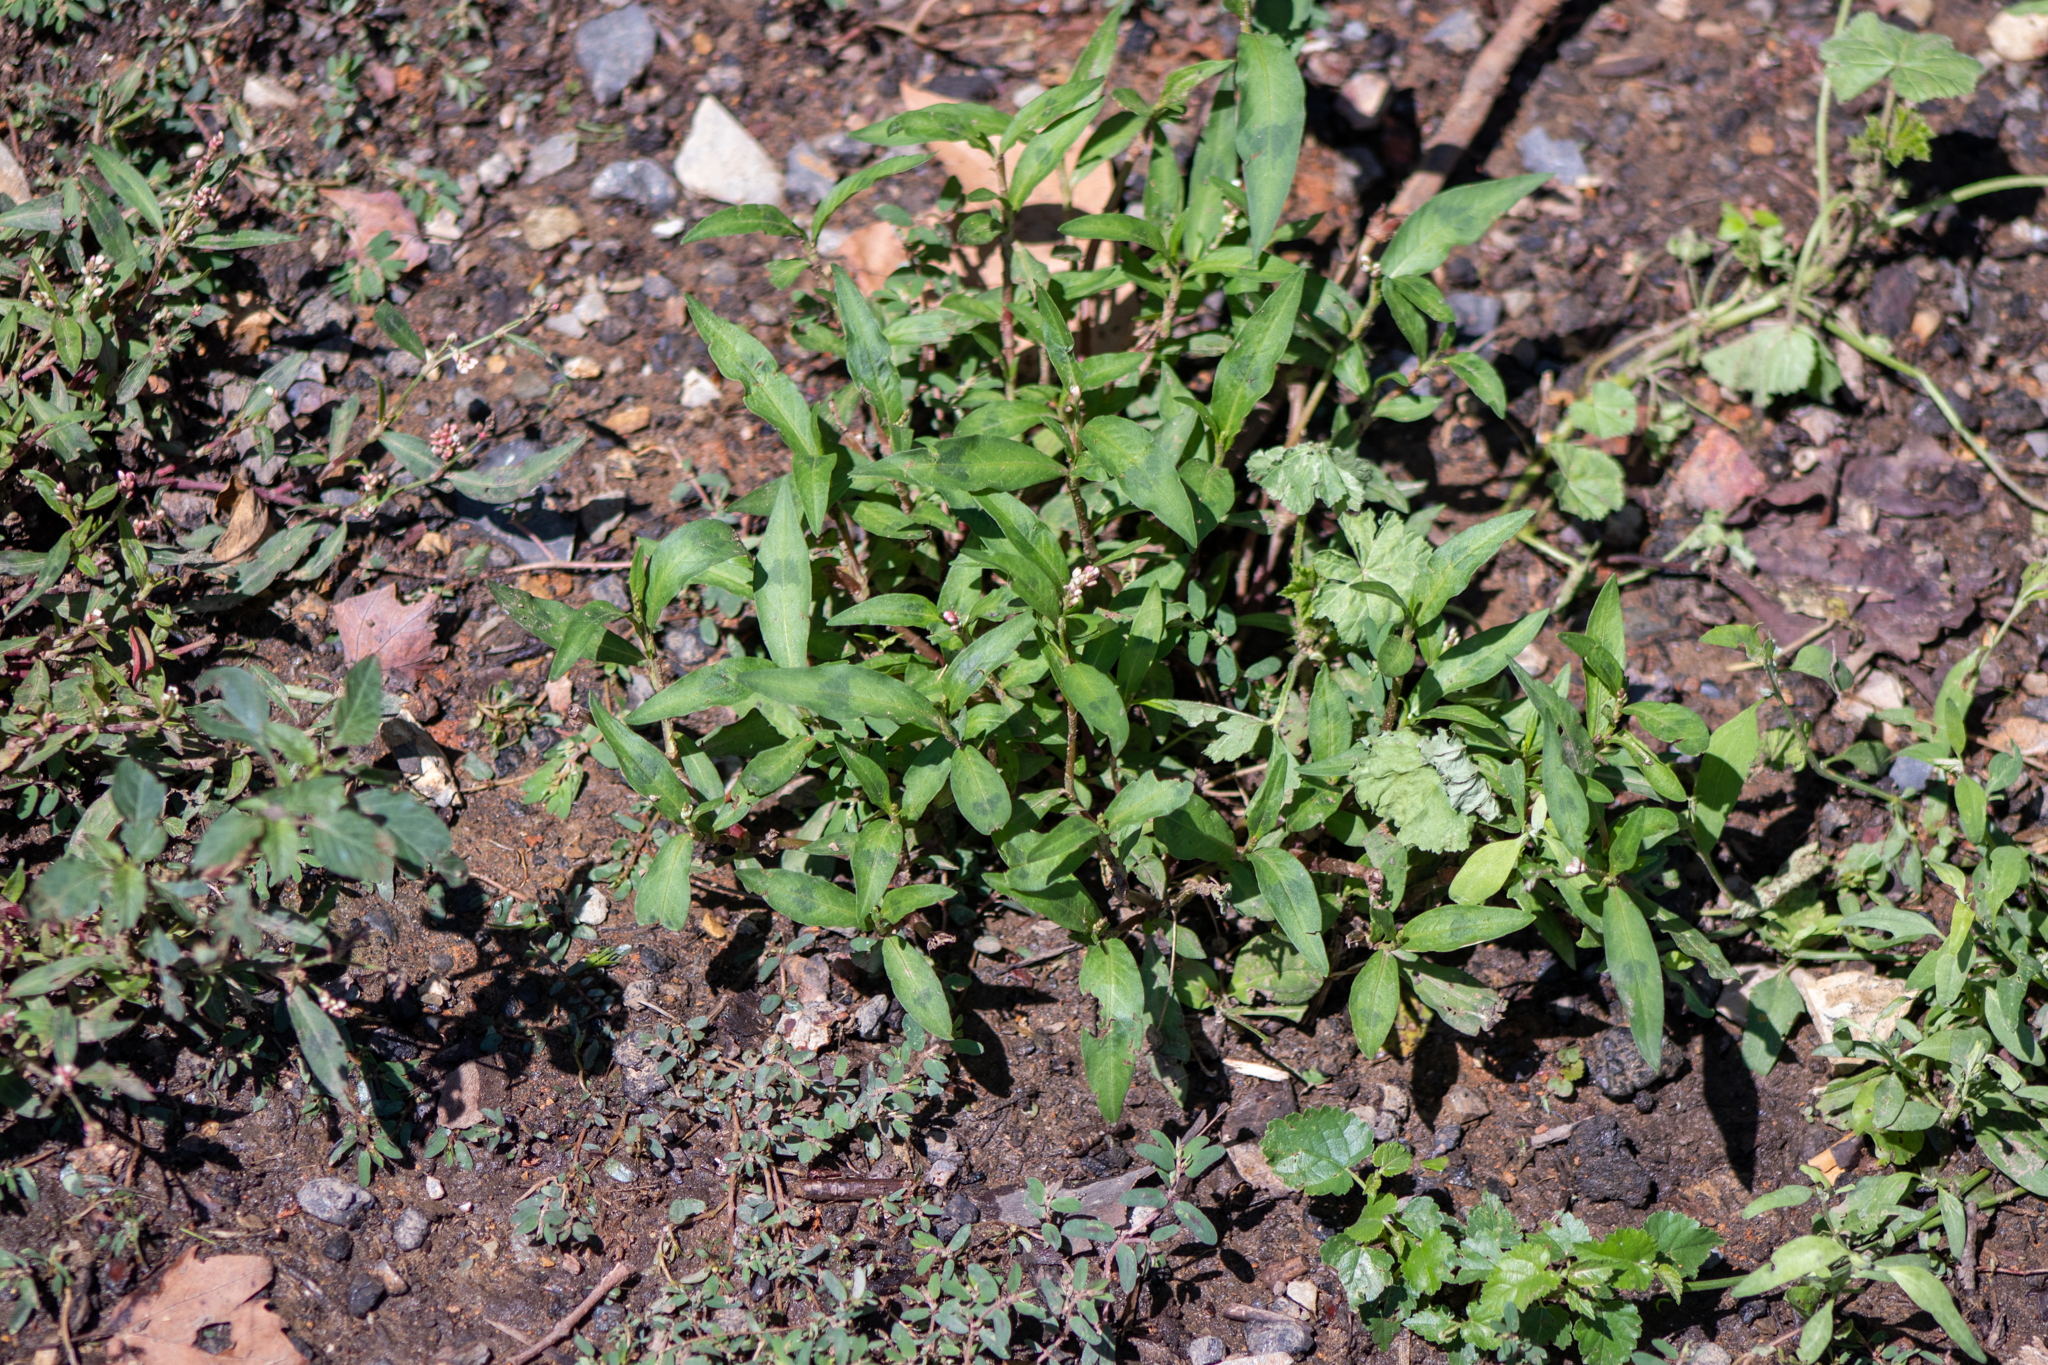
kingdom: Plantae
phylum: Tracheophyta
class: Magnoliopsida
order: Caryophyllales
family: Polygonaceae
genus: Persicaria
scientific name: Persicaria maculosa
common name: Redshank
